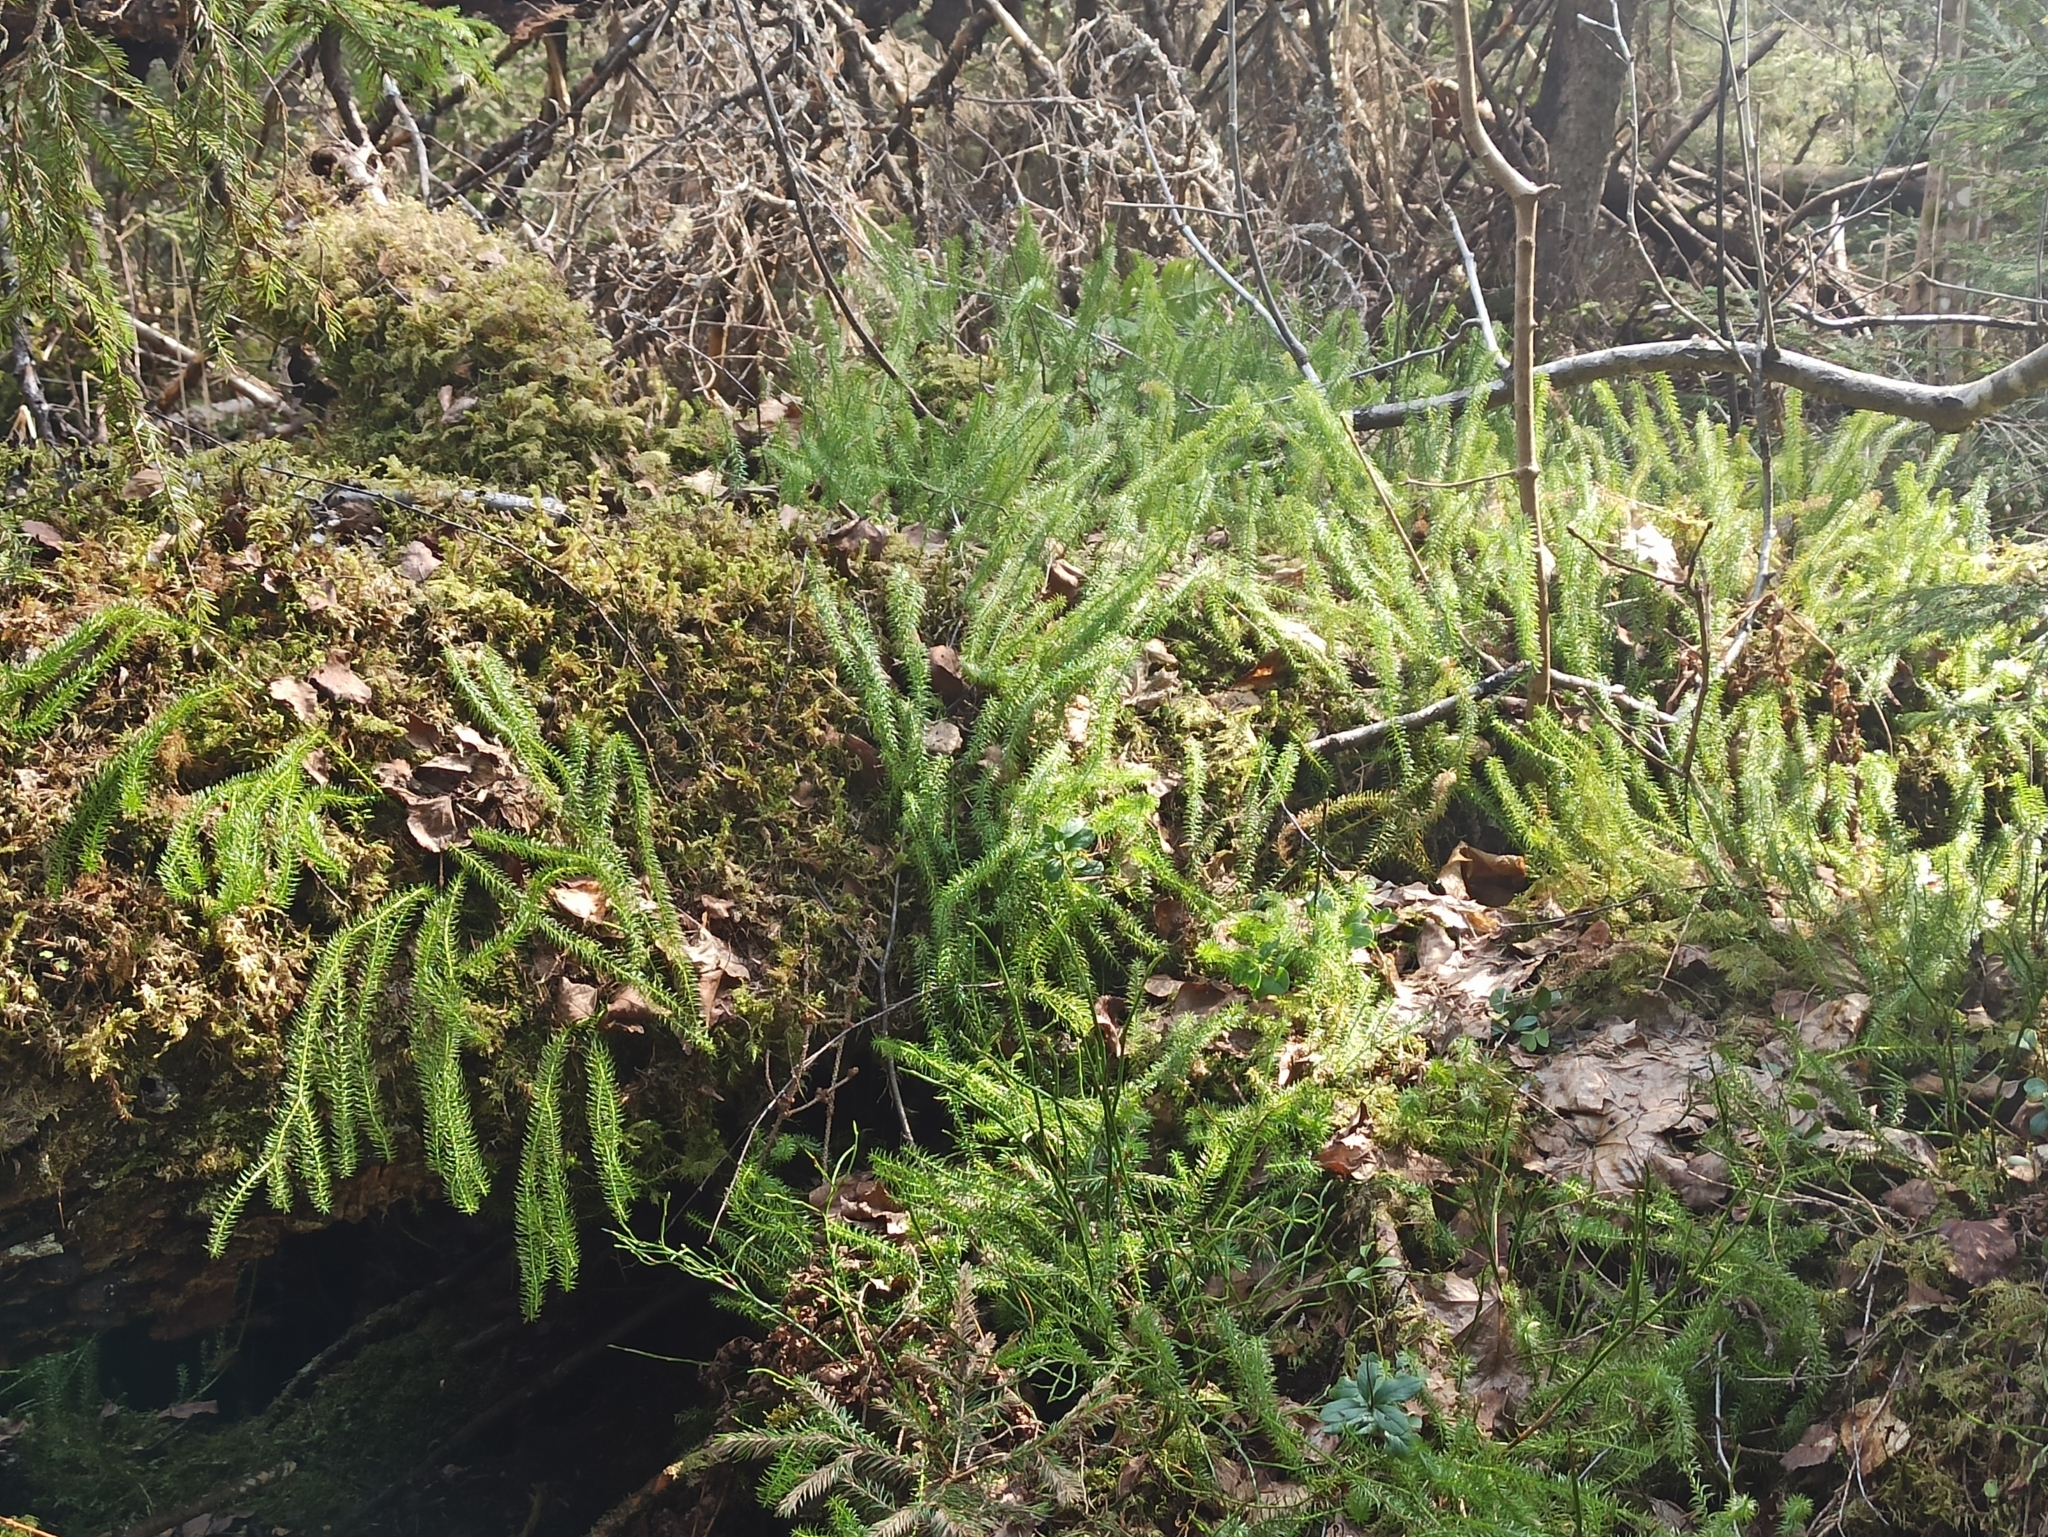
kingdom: Plantae
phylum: Tracheophyta
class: Lycopodiopsida
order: Lycopodiales
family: Lycopodiaceae
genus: Spinulum
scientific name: Spinulum annotinum
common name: Interrupted club-moss
